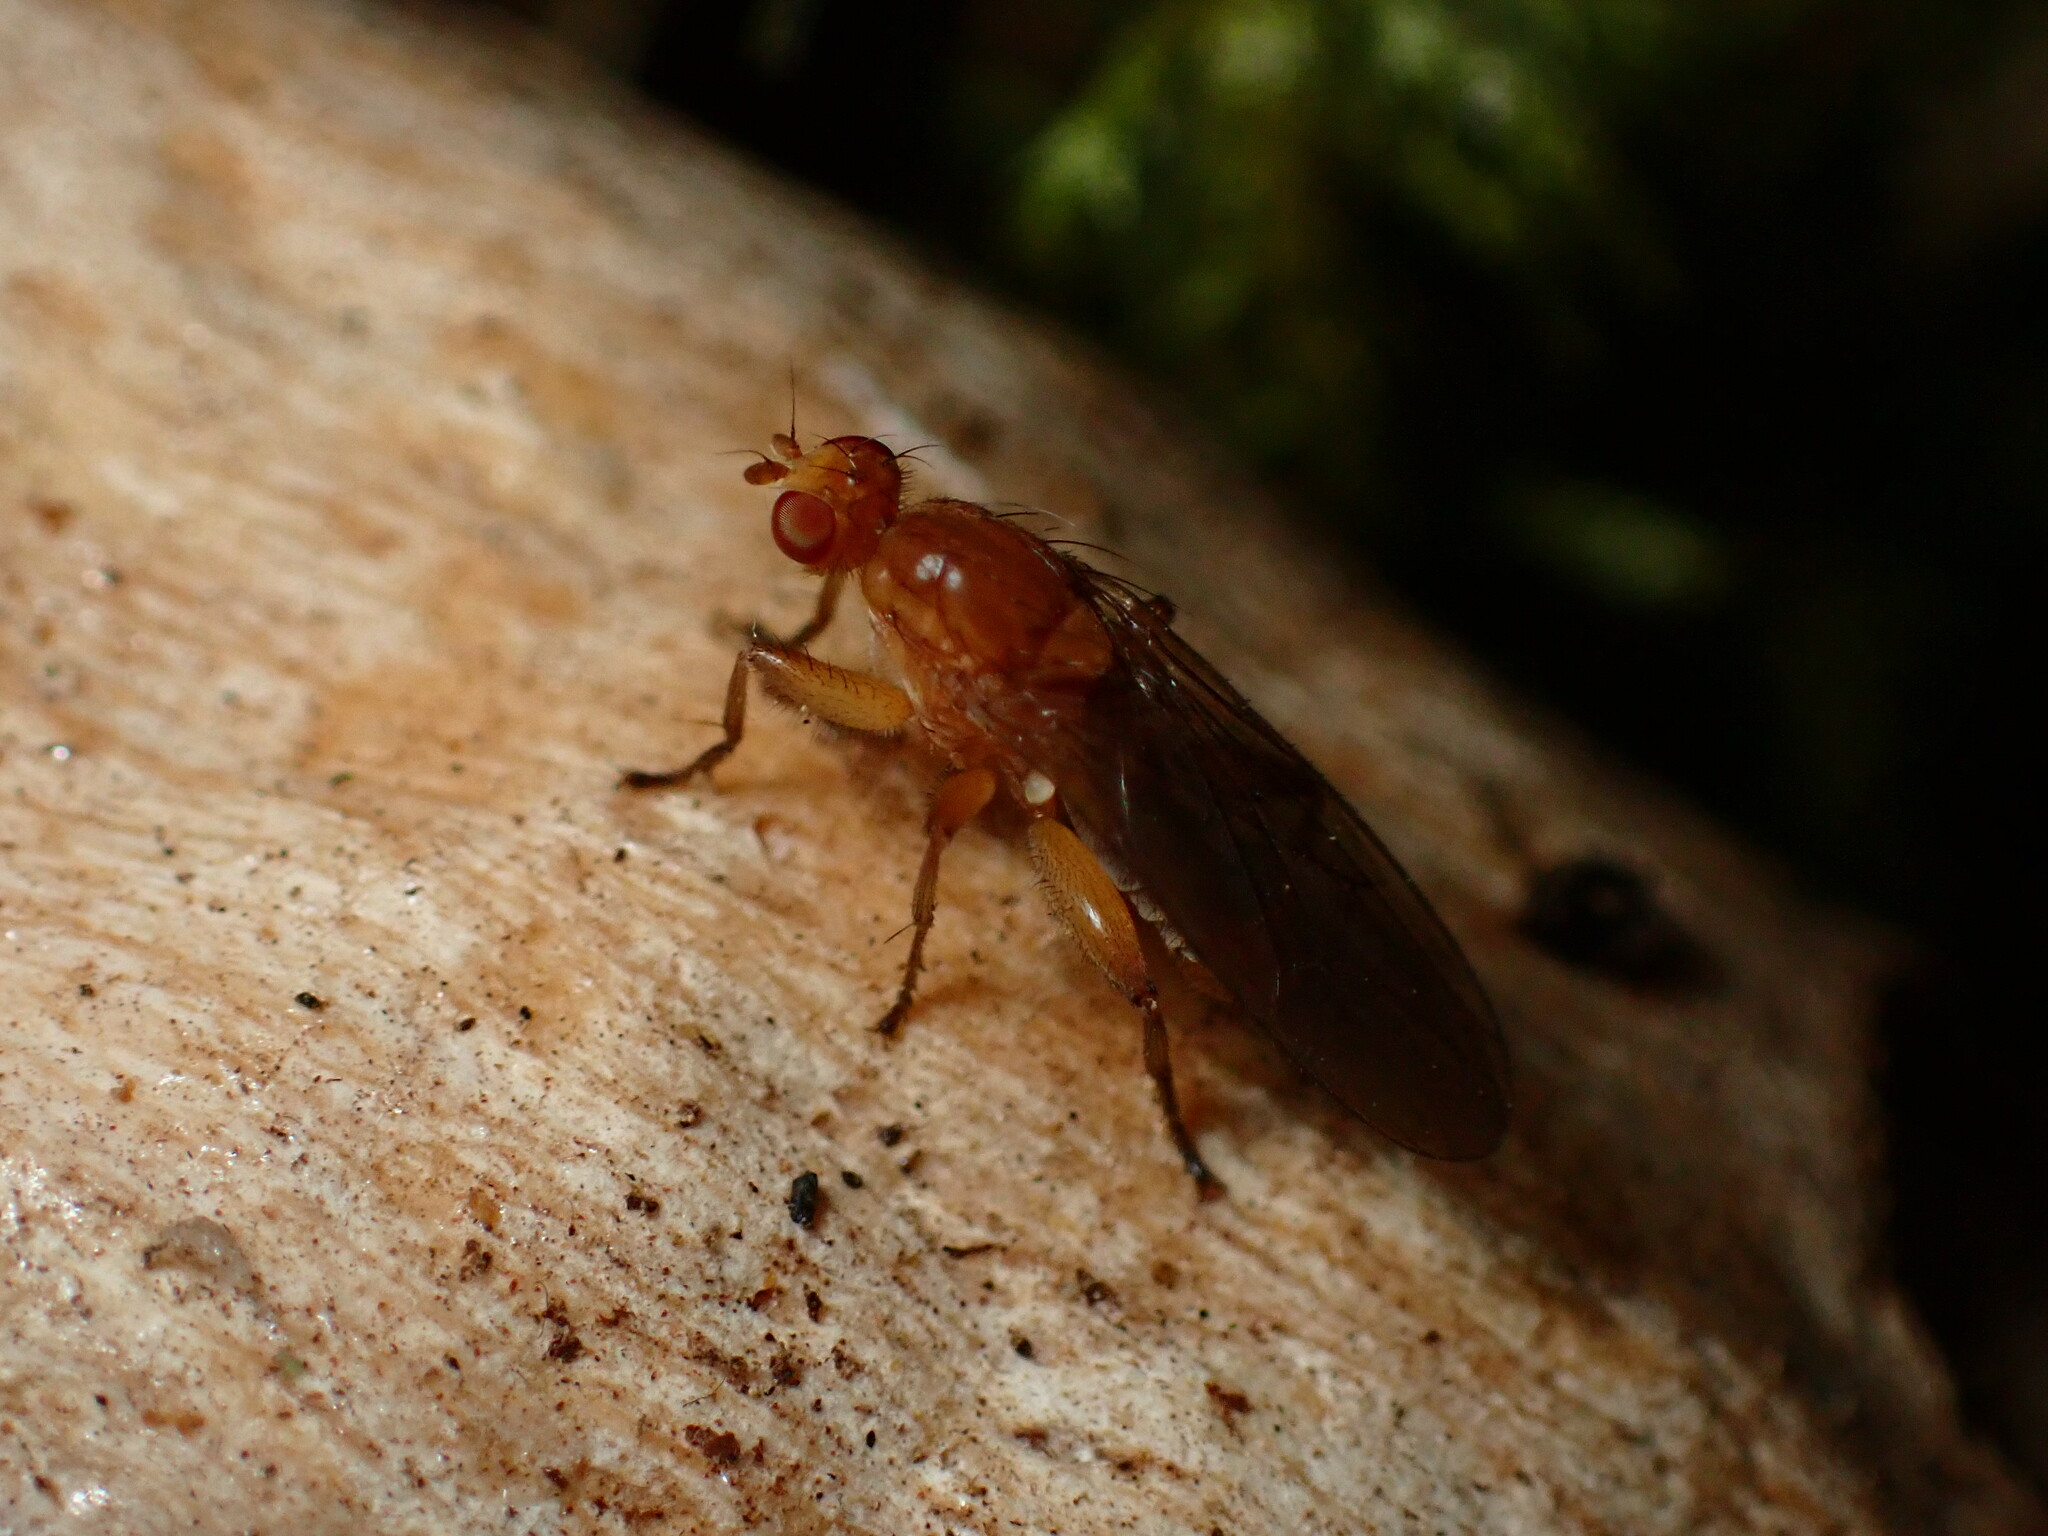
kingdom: Animalia
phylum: Arthropoda
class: Insecta
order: Diptera
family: Heleomyzidae
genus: Suillia
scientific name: Suillia convergens
